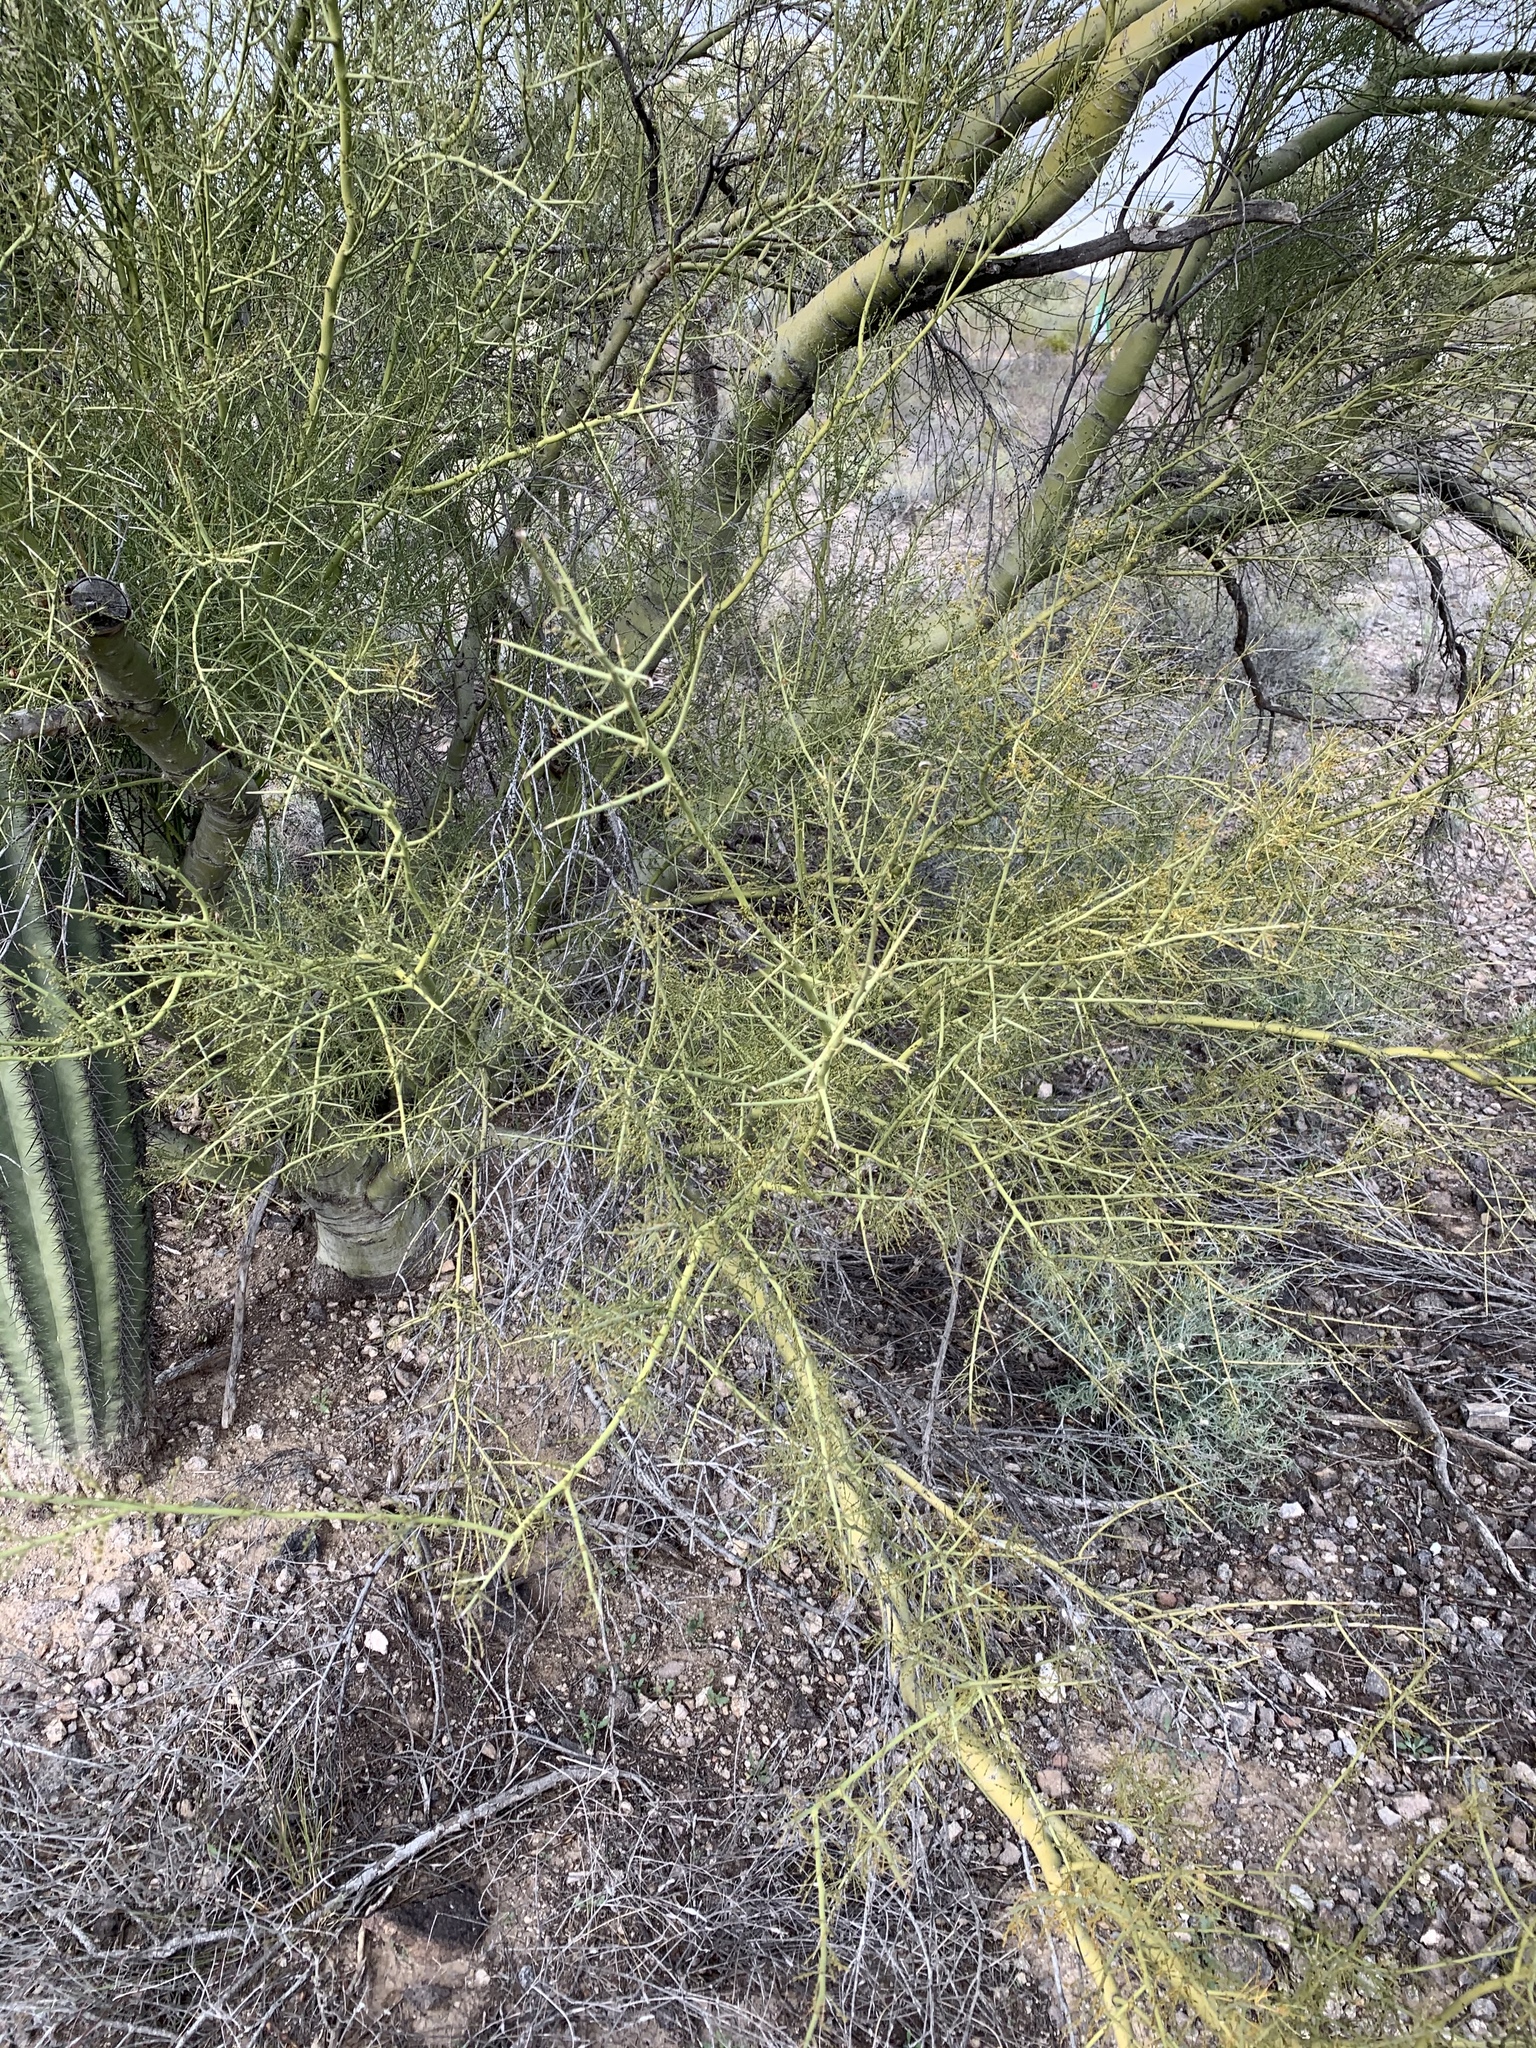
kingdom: Plantae
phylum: Tracheophyta
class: Magnoliopsida
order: Fabales
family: Fabaceae
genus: Parkinsonia
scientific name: Parkinsonia microphylla
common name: Yellow paloverde
